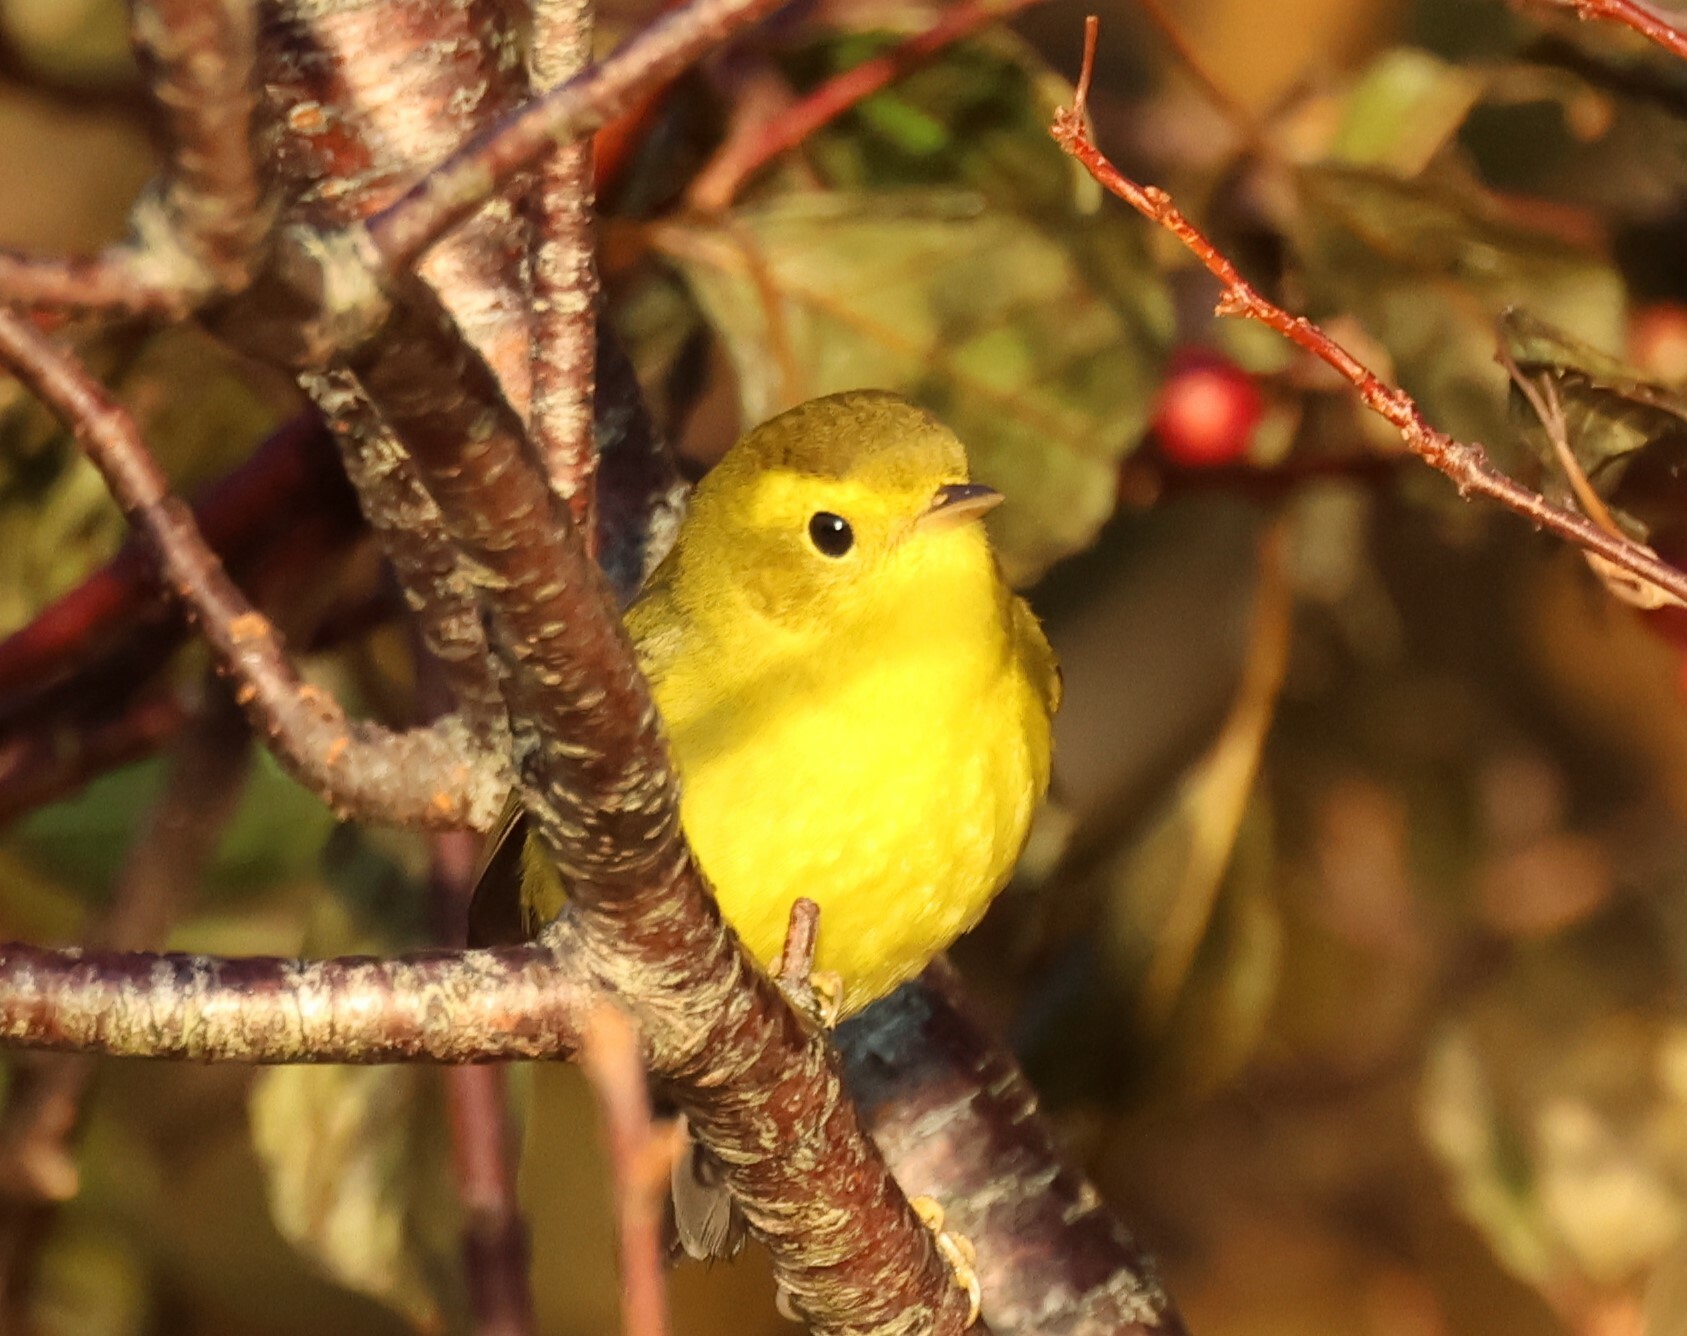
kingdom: Animalia
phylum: Chordata
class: Aves
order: Passeriformes
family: Parulidae
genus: Cardellina
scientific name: Cardellina pusilla
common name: Wilson's warbler
